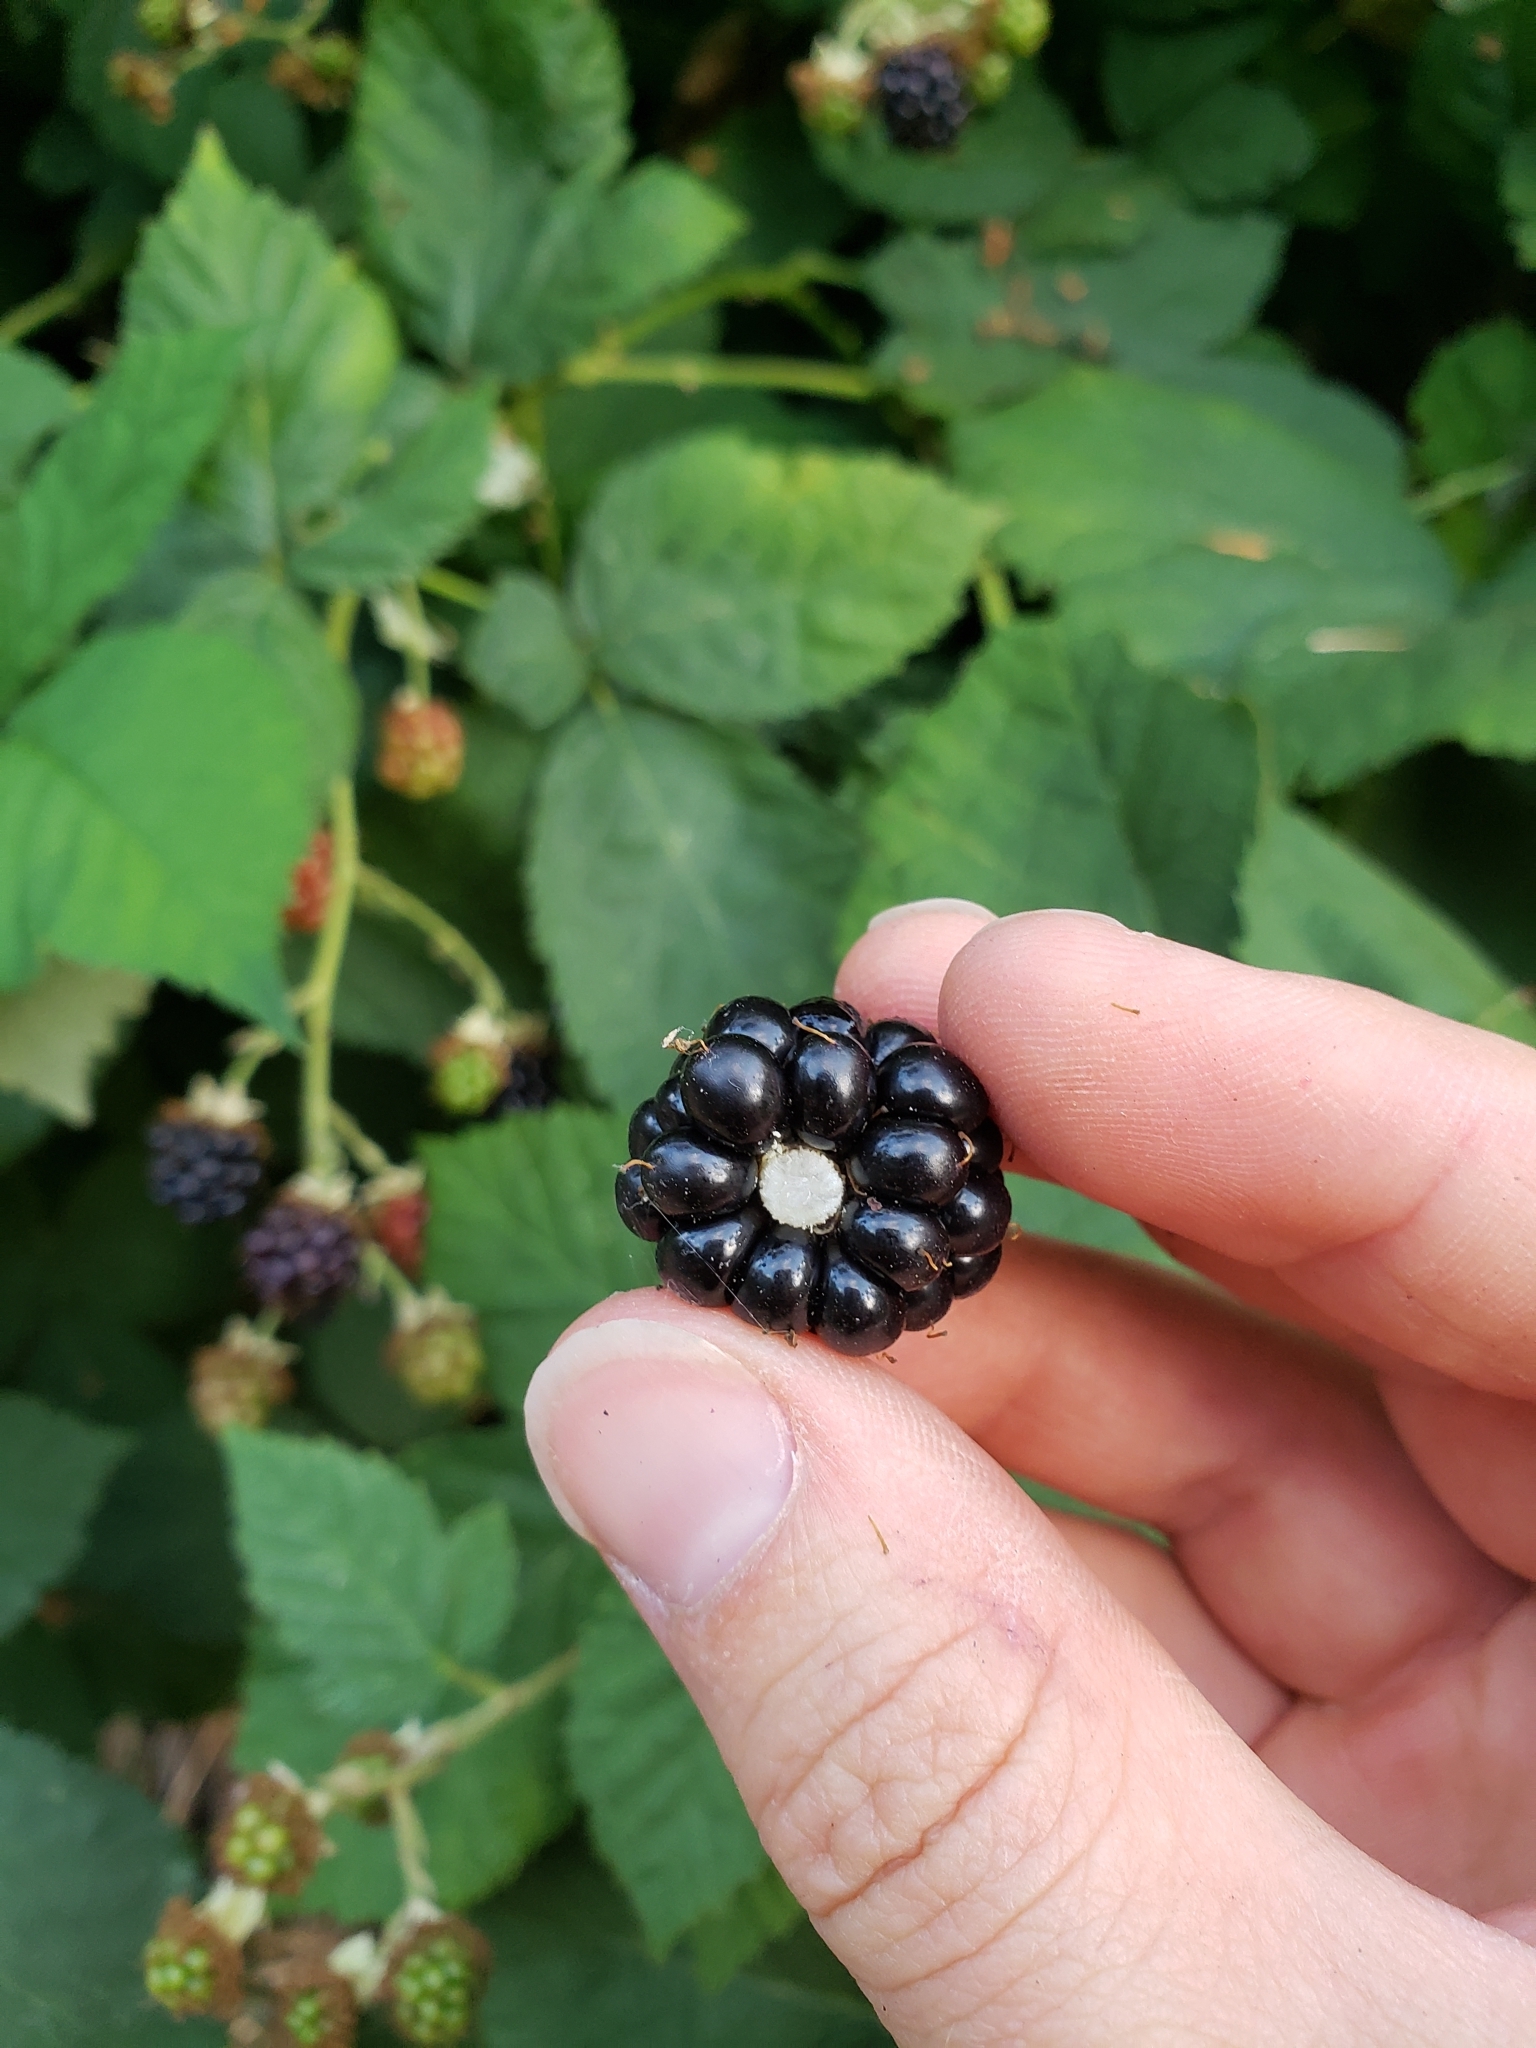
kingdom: Plantae
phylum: Tracheophyta
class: Magnoliopsida
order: Rosales
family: Rosaceae
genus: Rubus
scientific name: Rubus armeniacus
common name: Himalayan blackberry
